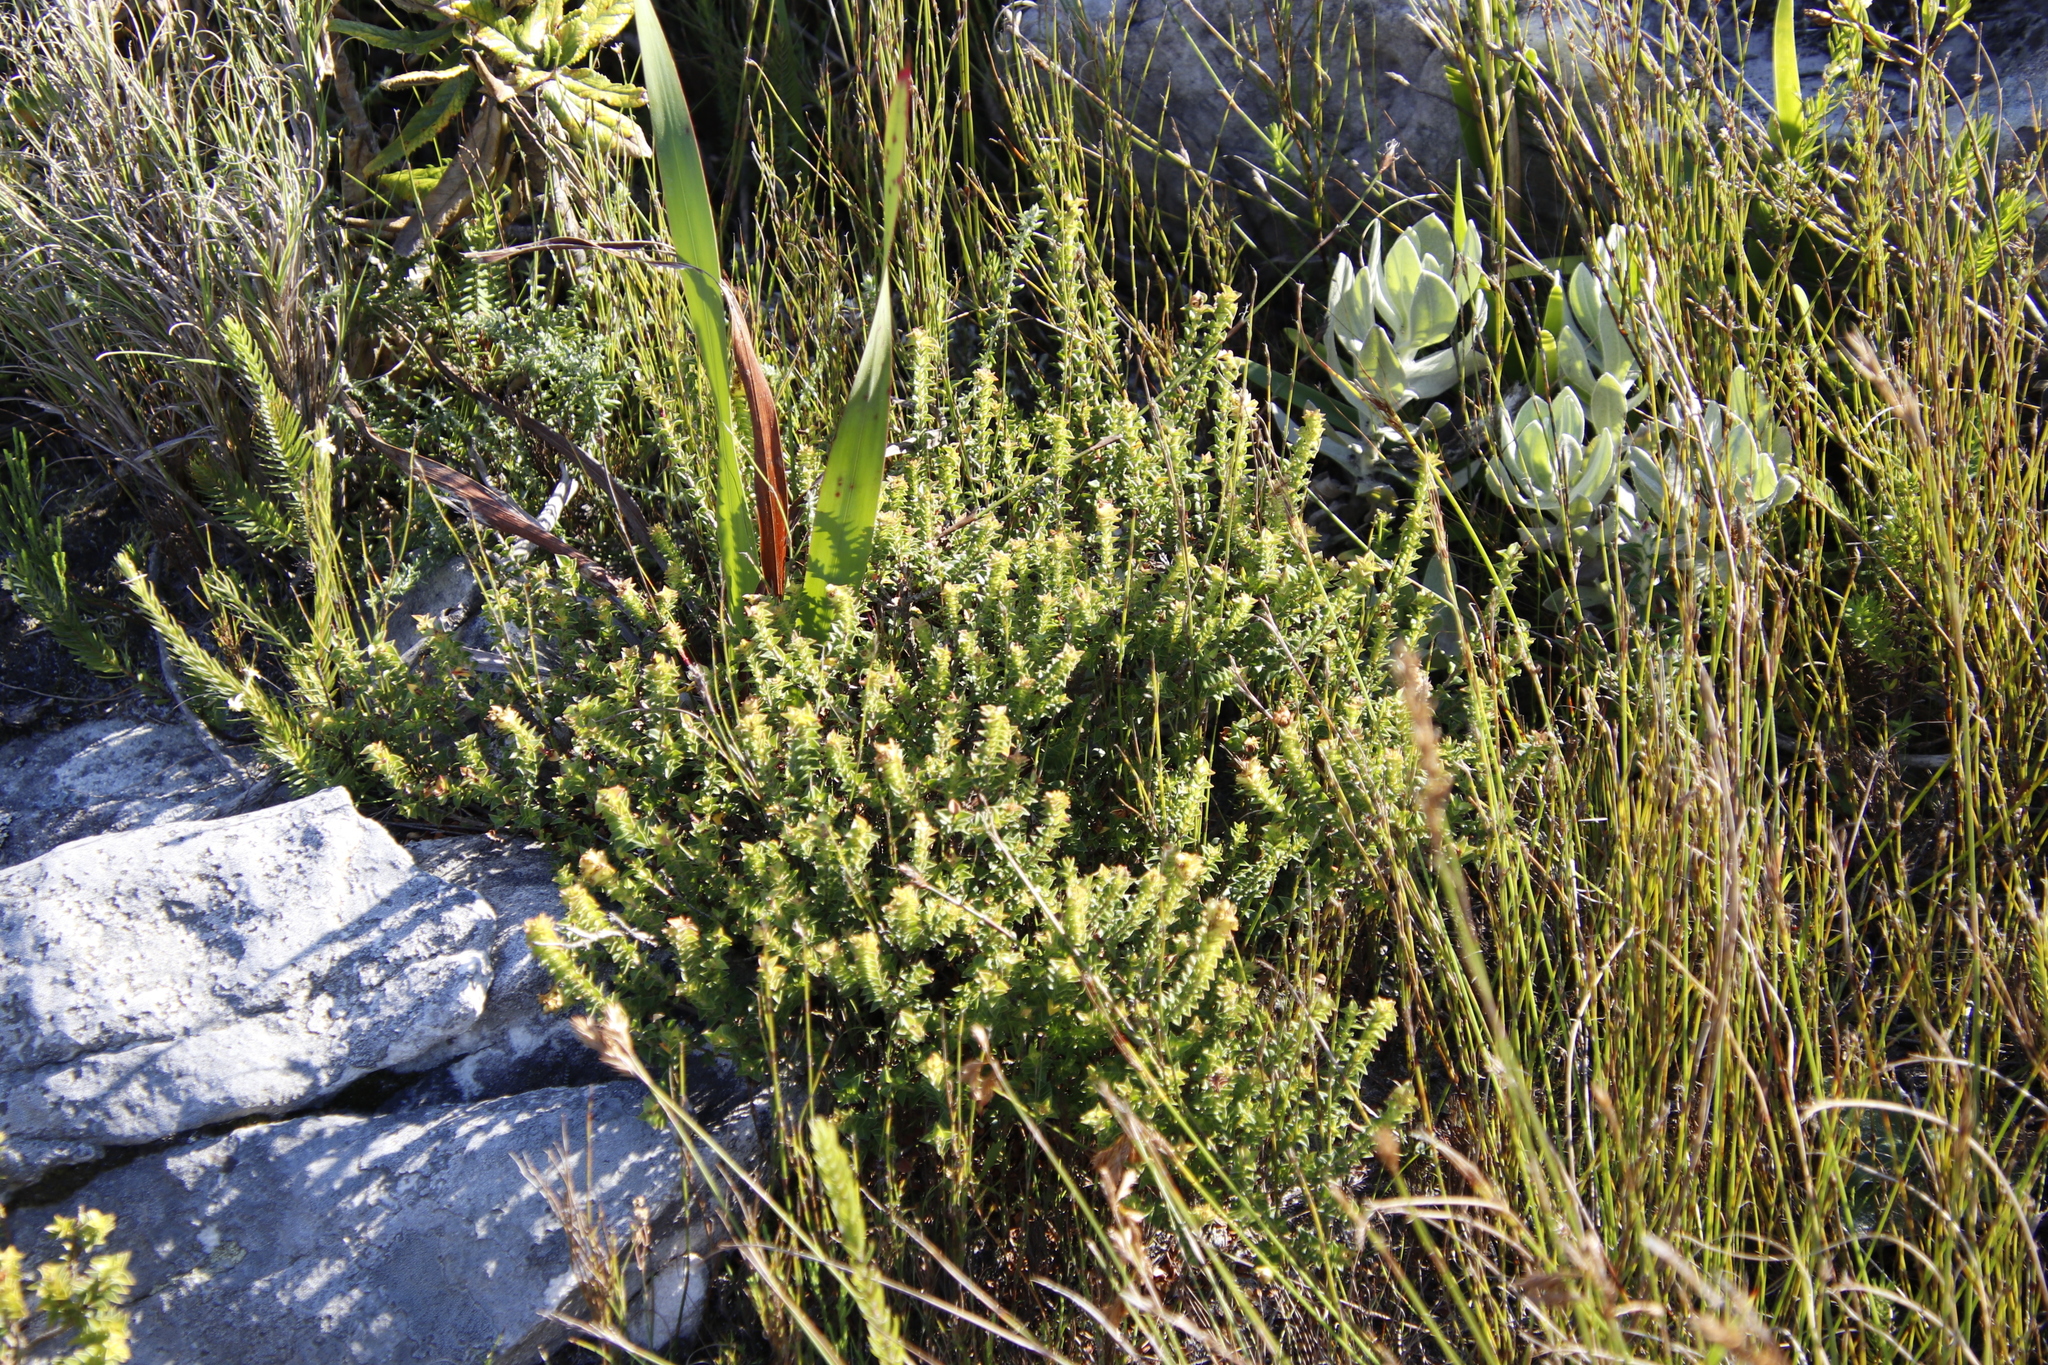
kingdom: Plantae
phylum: Tracheophyta
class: Magnoliopsida
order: Myrtales
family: Penaeaceae
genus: Penaea
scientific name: Penaea mucronata
